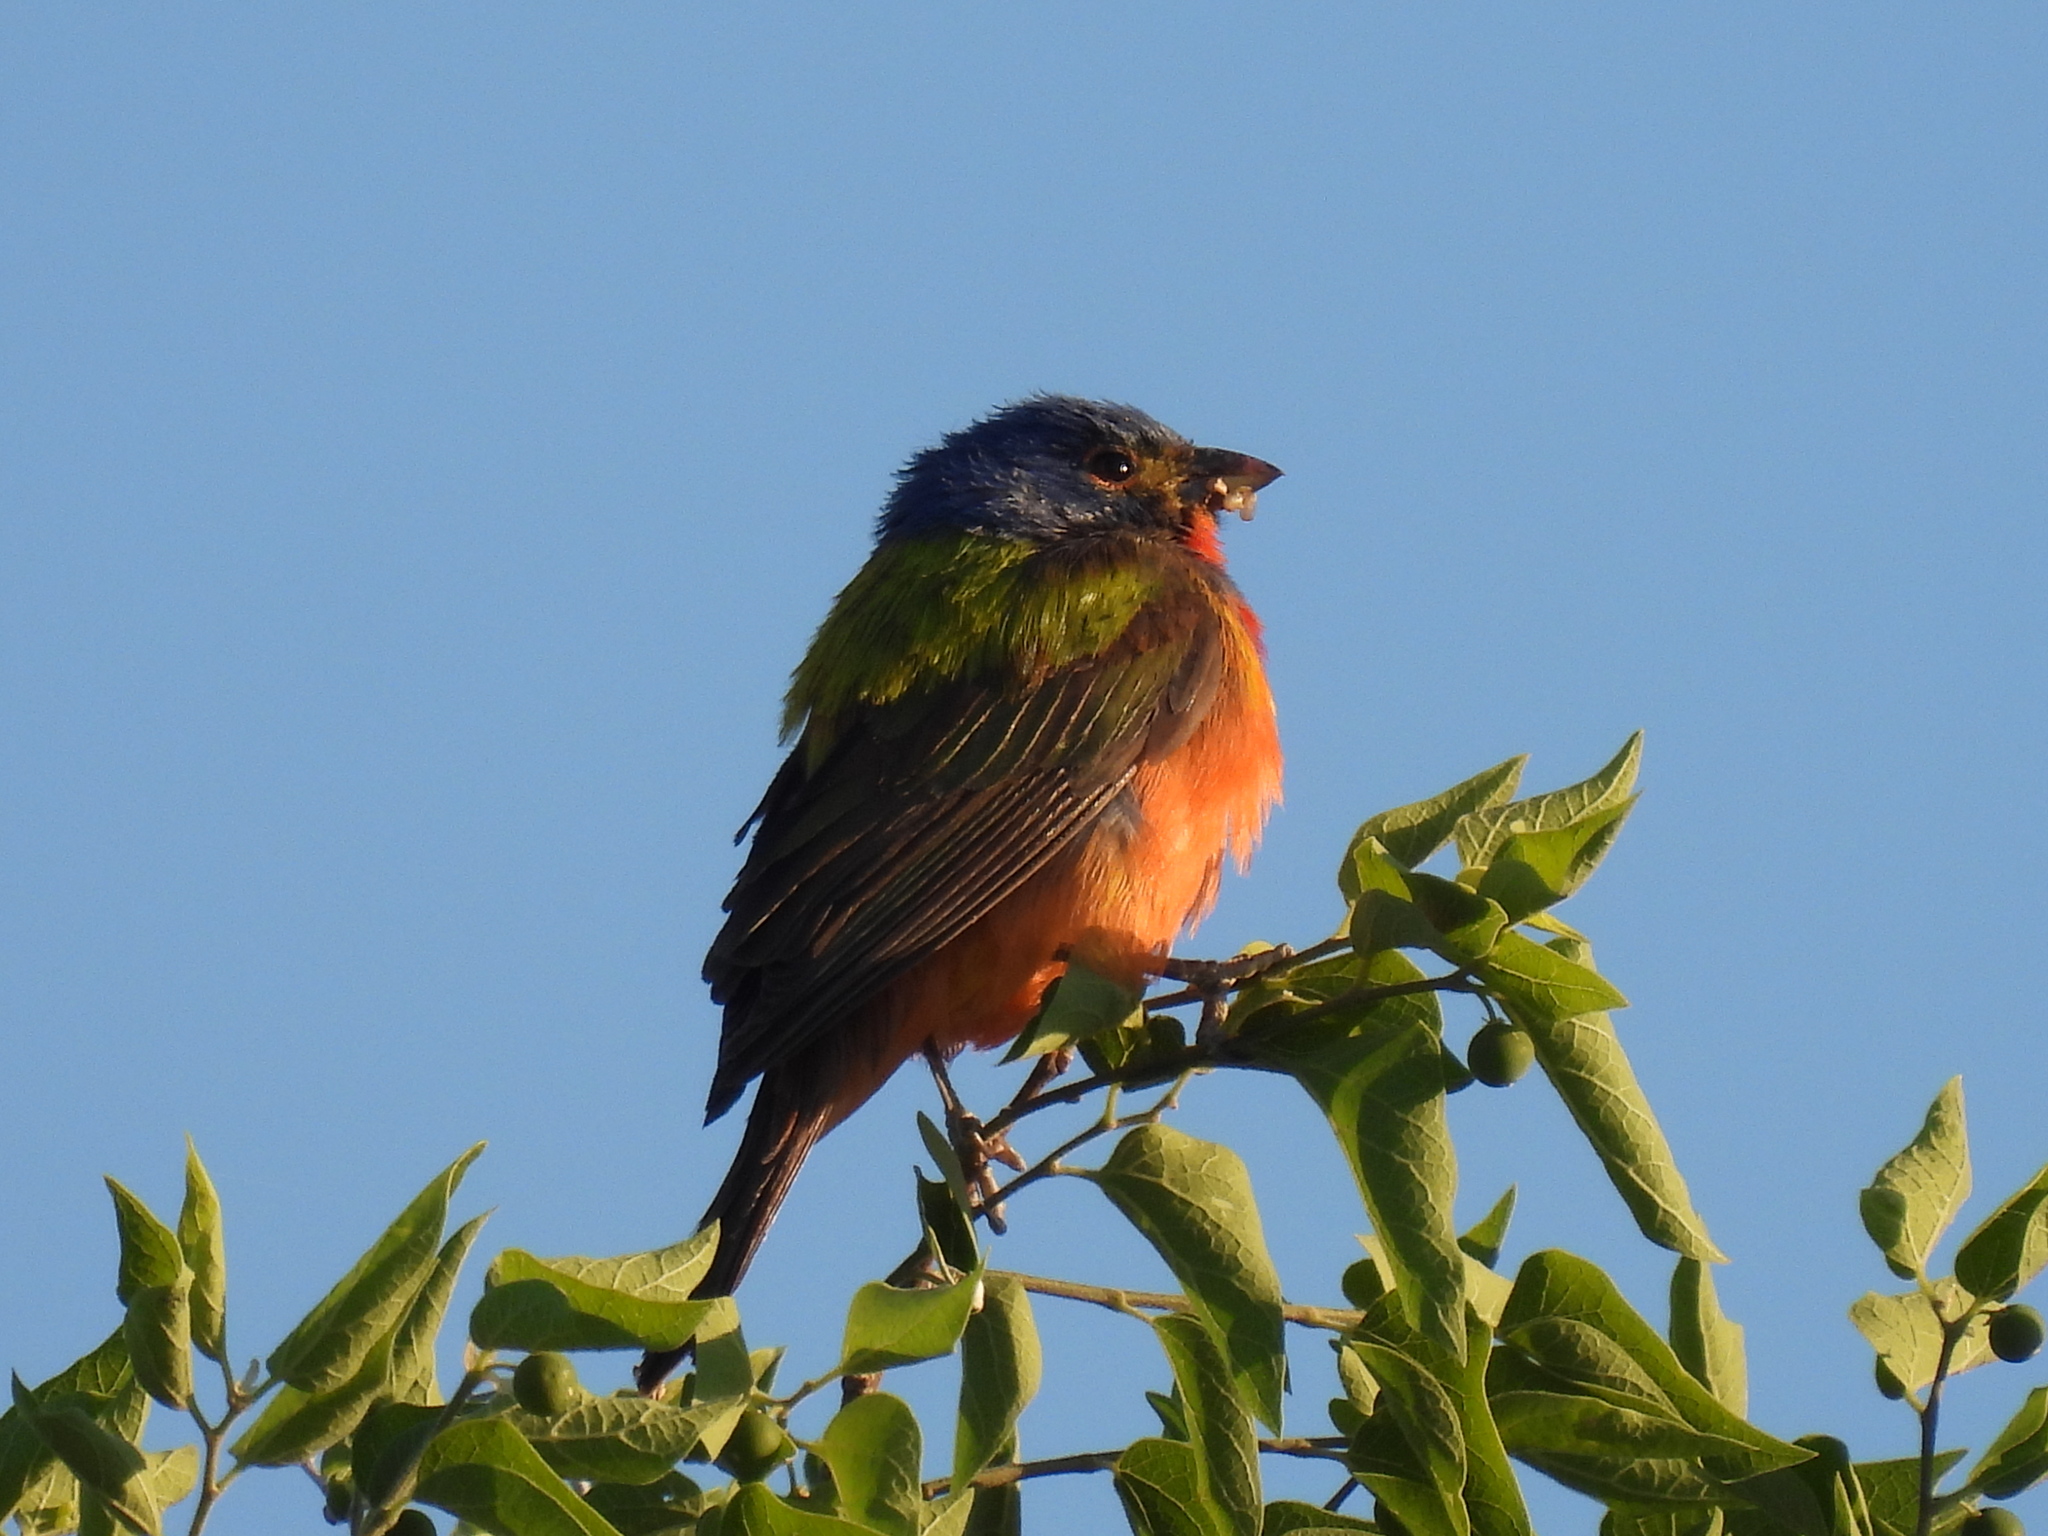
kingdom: Animalia
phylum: Chordata
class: Aves
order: Passeriformes
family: Cardinalidae
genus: Passerina
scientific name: Passerina ciris
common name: Painted bunting
